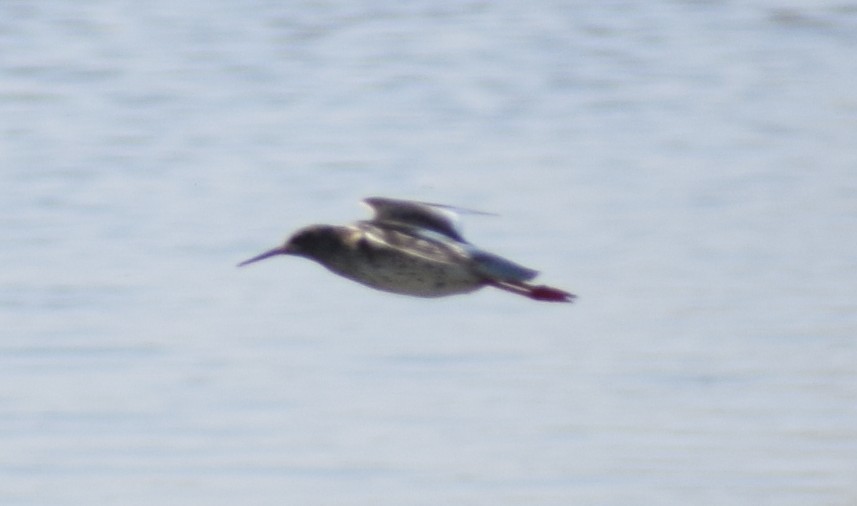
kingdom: Animalia
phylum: Chordata
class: Aves
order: Charadriiformes
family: Scolopacidae
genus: Tringa
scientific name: Tringa totanus
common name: Common redshank
